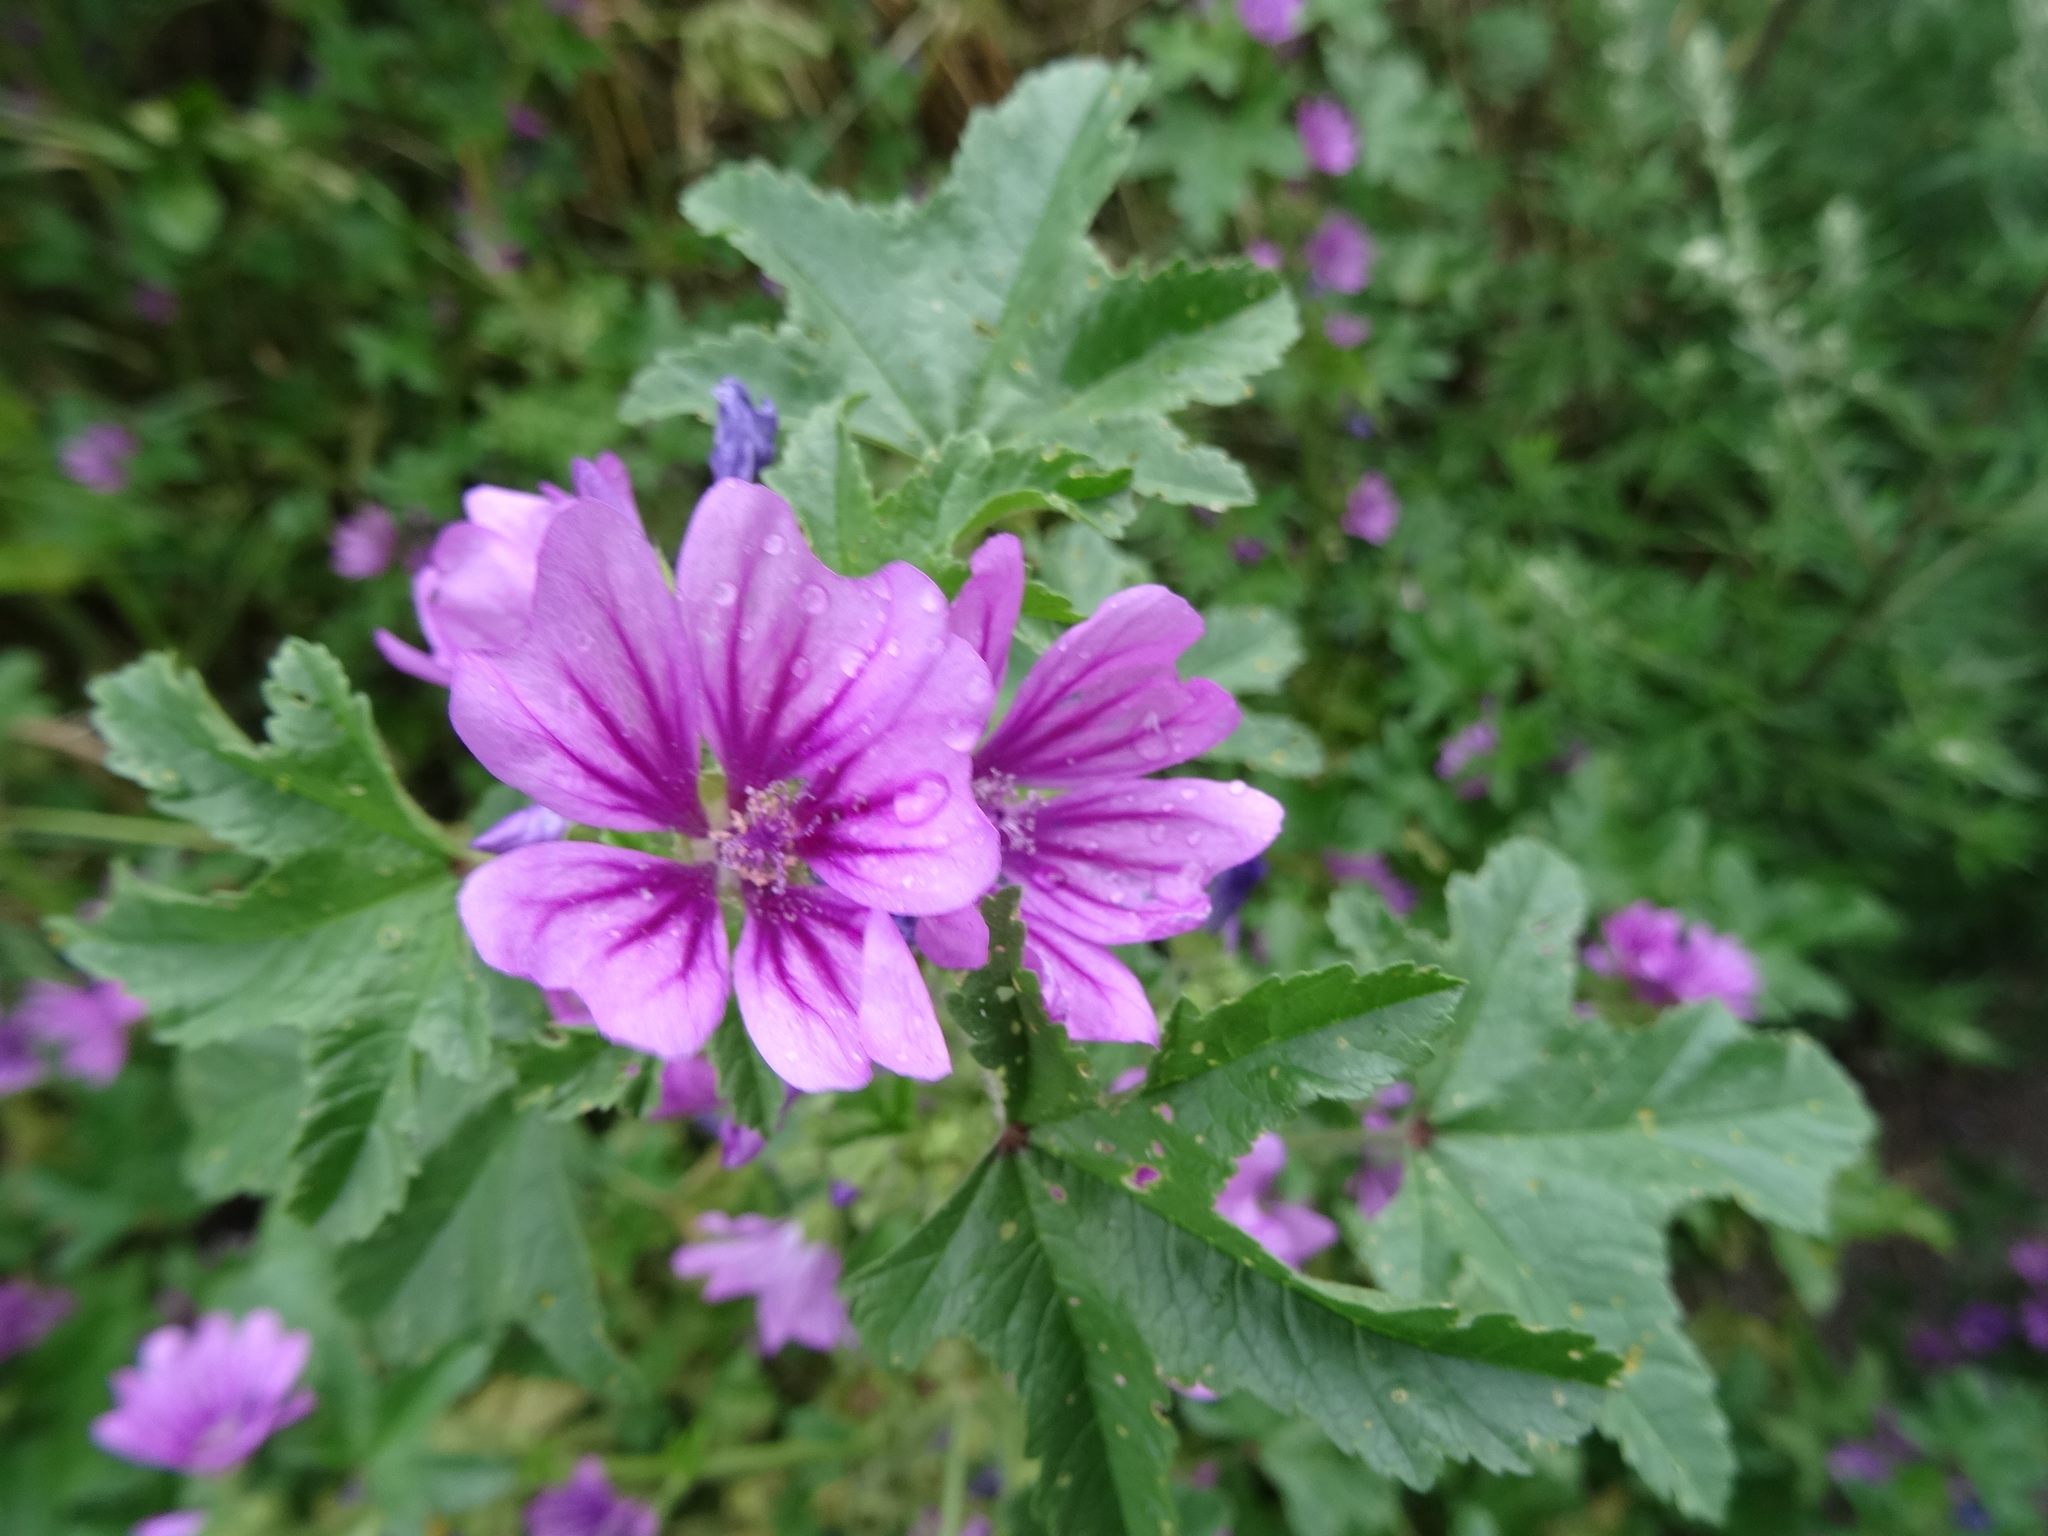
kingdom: Plantae
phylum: Tracheophyta
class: Magnoliopsida
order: Malvales
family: Malvaceae
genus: Malva
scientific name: Malva sylvestris
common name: Common mallow
